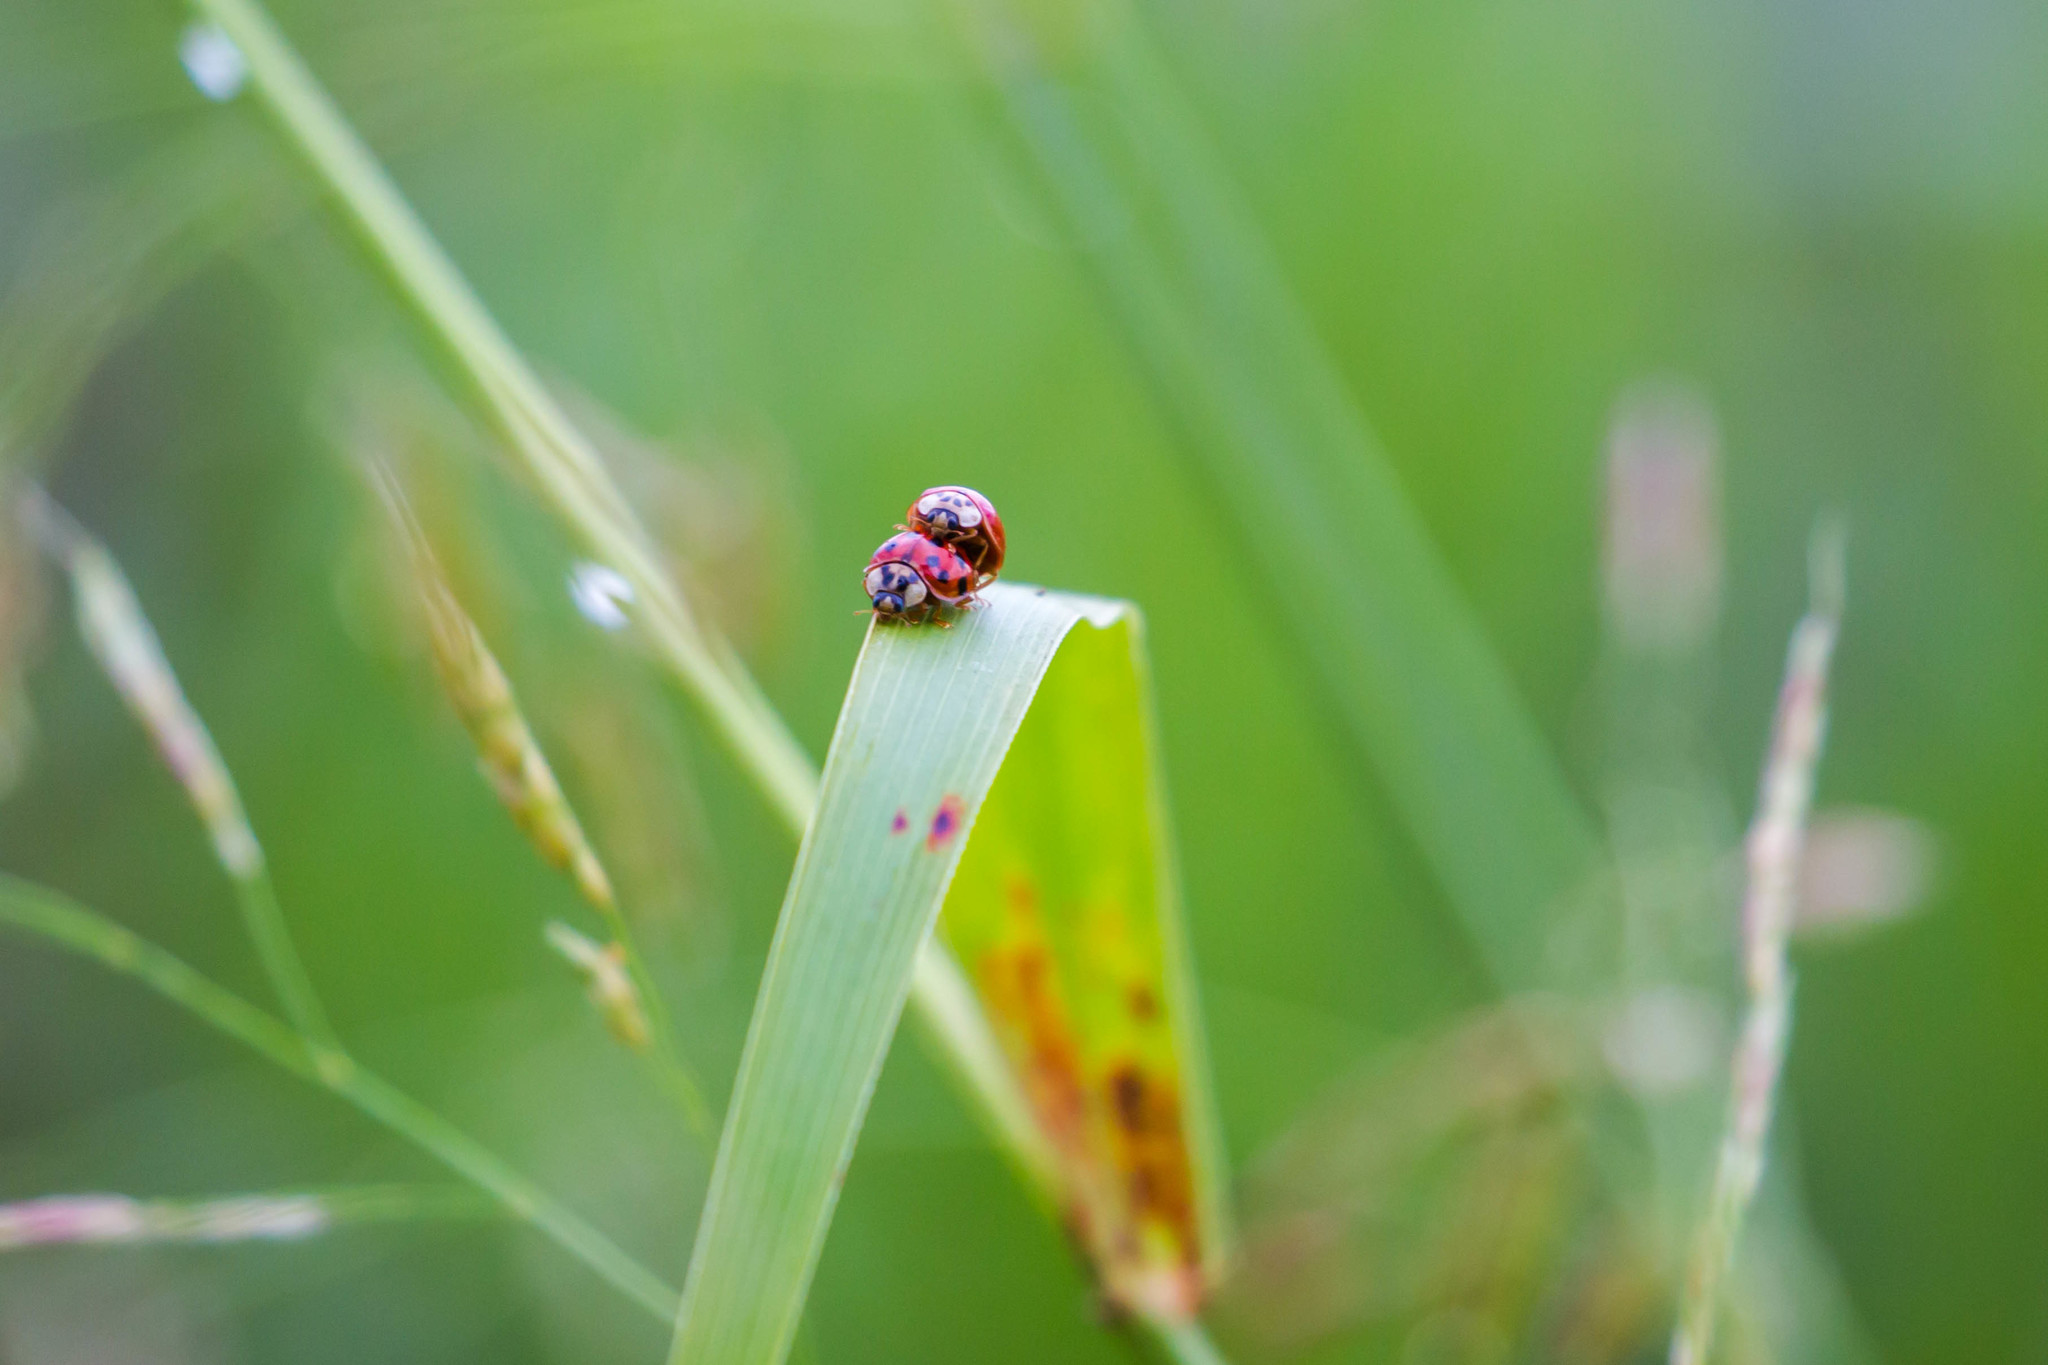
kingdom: Animalia
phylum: Arthropoda
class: Insecta
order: Coleoptera
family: Coccinellidae
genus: Harmonia
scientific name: Harmonia axyridis
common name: Harlequin ladybird
